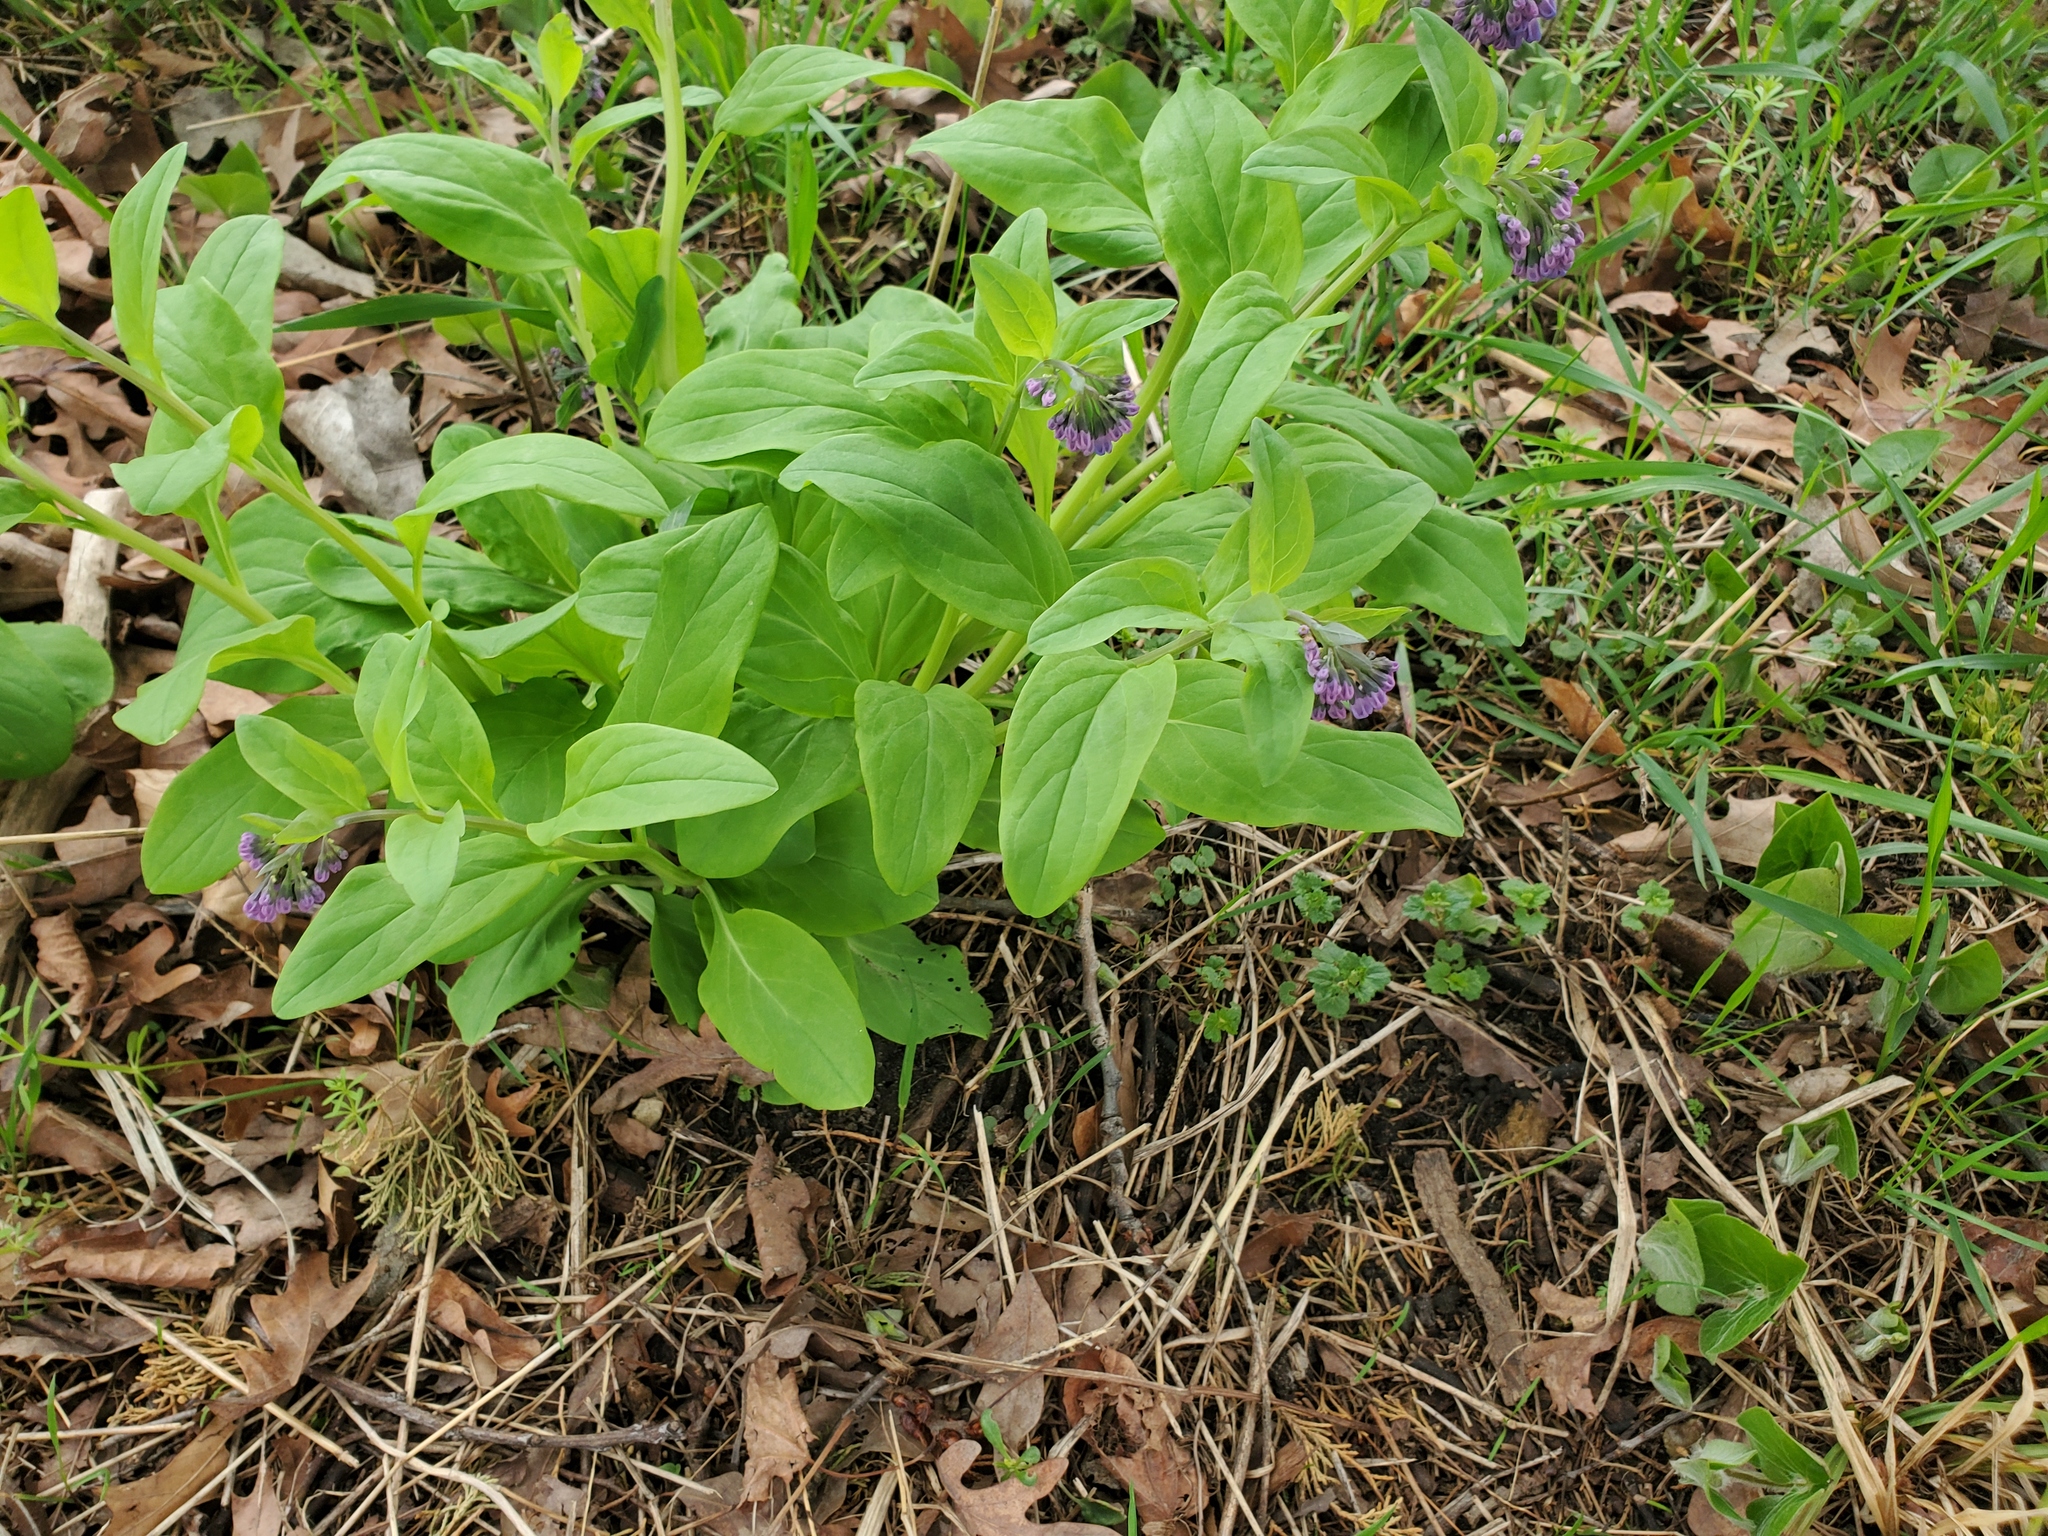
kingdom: Plantae
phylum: Tracheophyta
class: Magnoliopsida
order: Boraginales
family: Boraginaceae
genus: Mertensia
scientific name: Mertensia virginica
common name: Virginia bluebells
